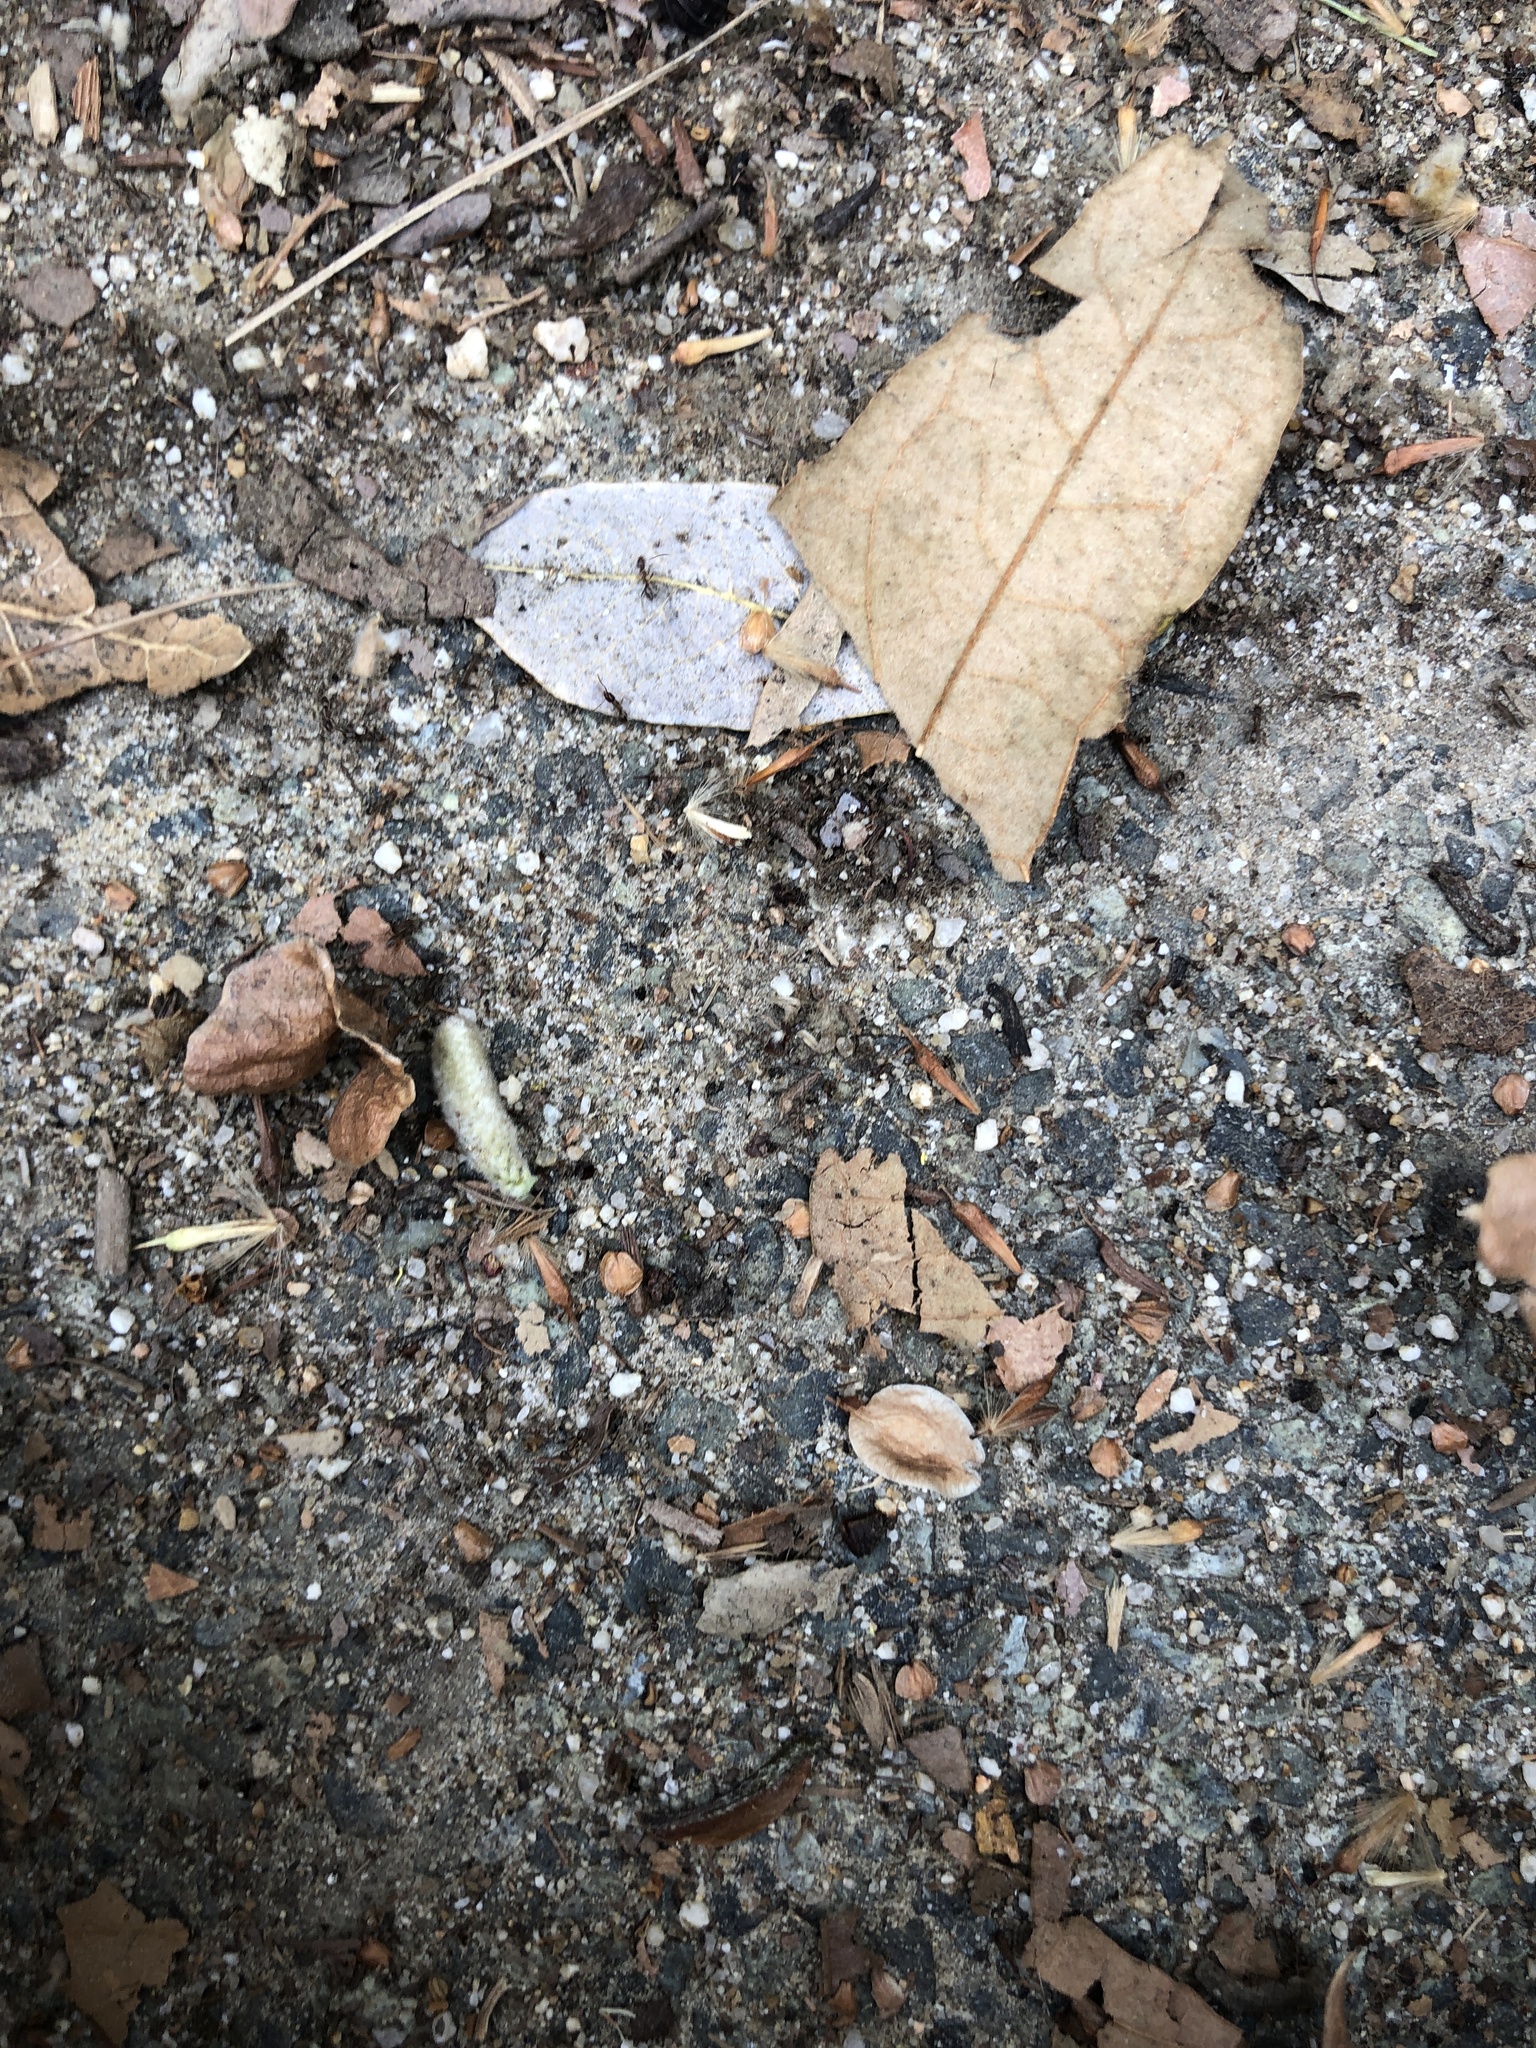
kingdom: Animalia
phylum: Arthropoda
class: Insecta
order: Hymenoptera
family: Formicidae
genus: Linepithema
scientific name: Linepithema humile
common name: Argentine ant
